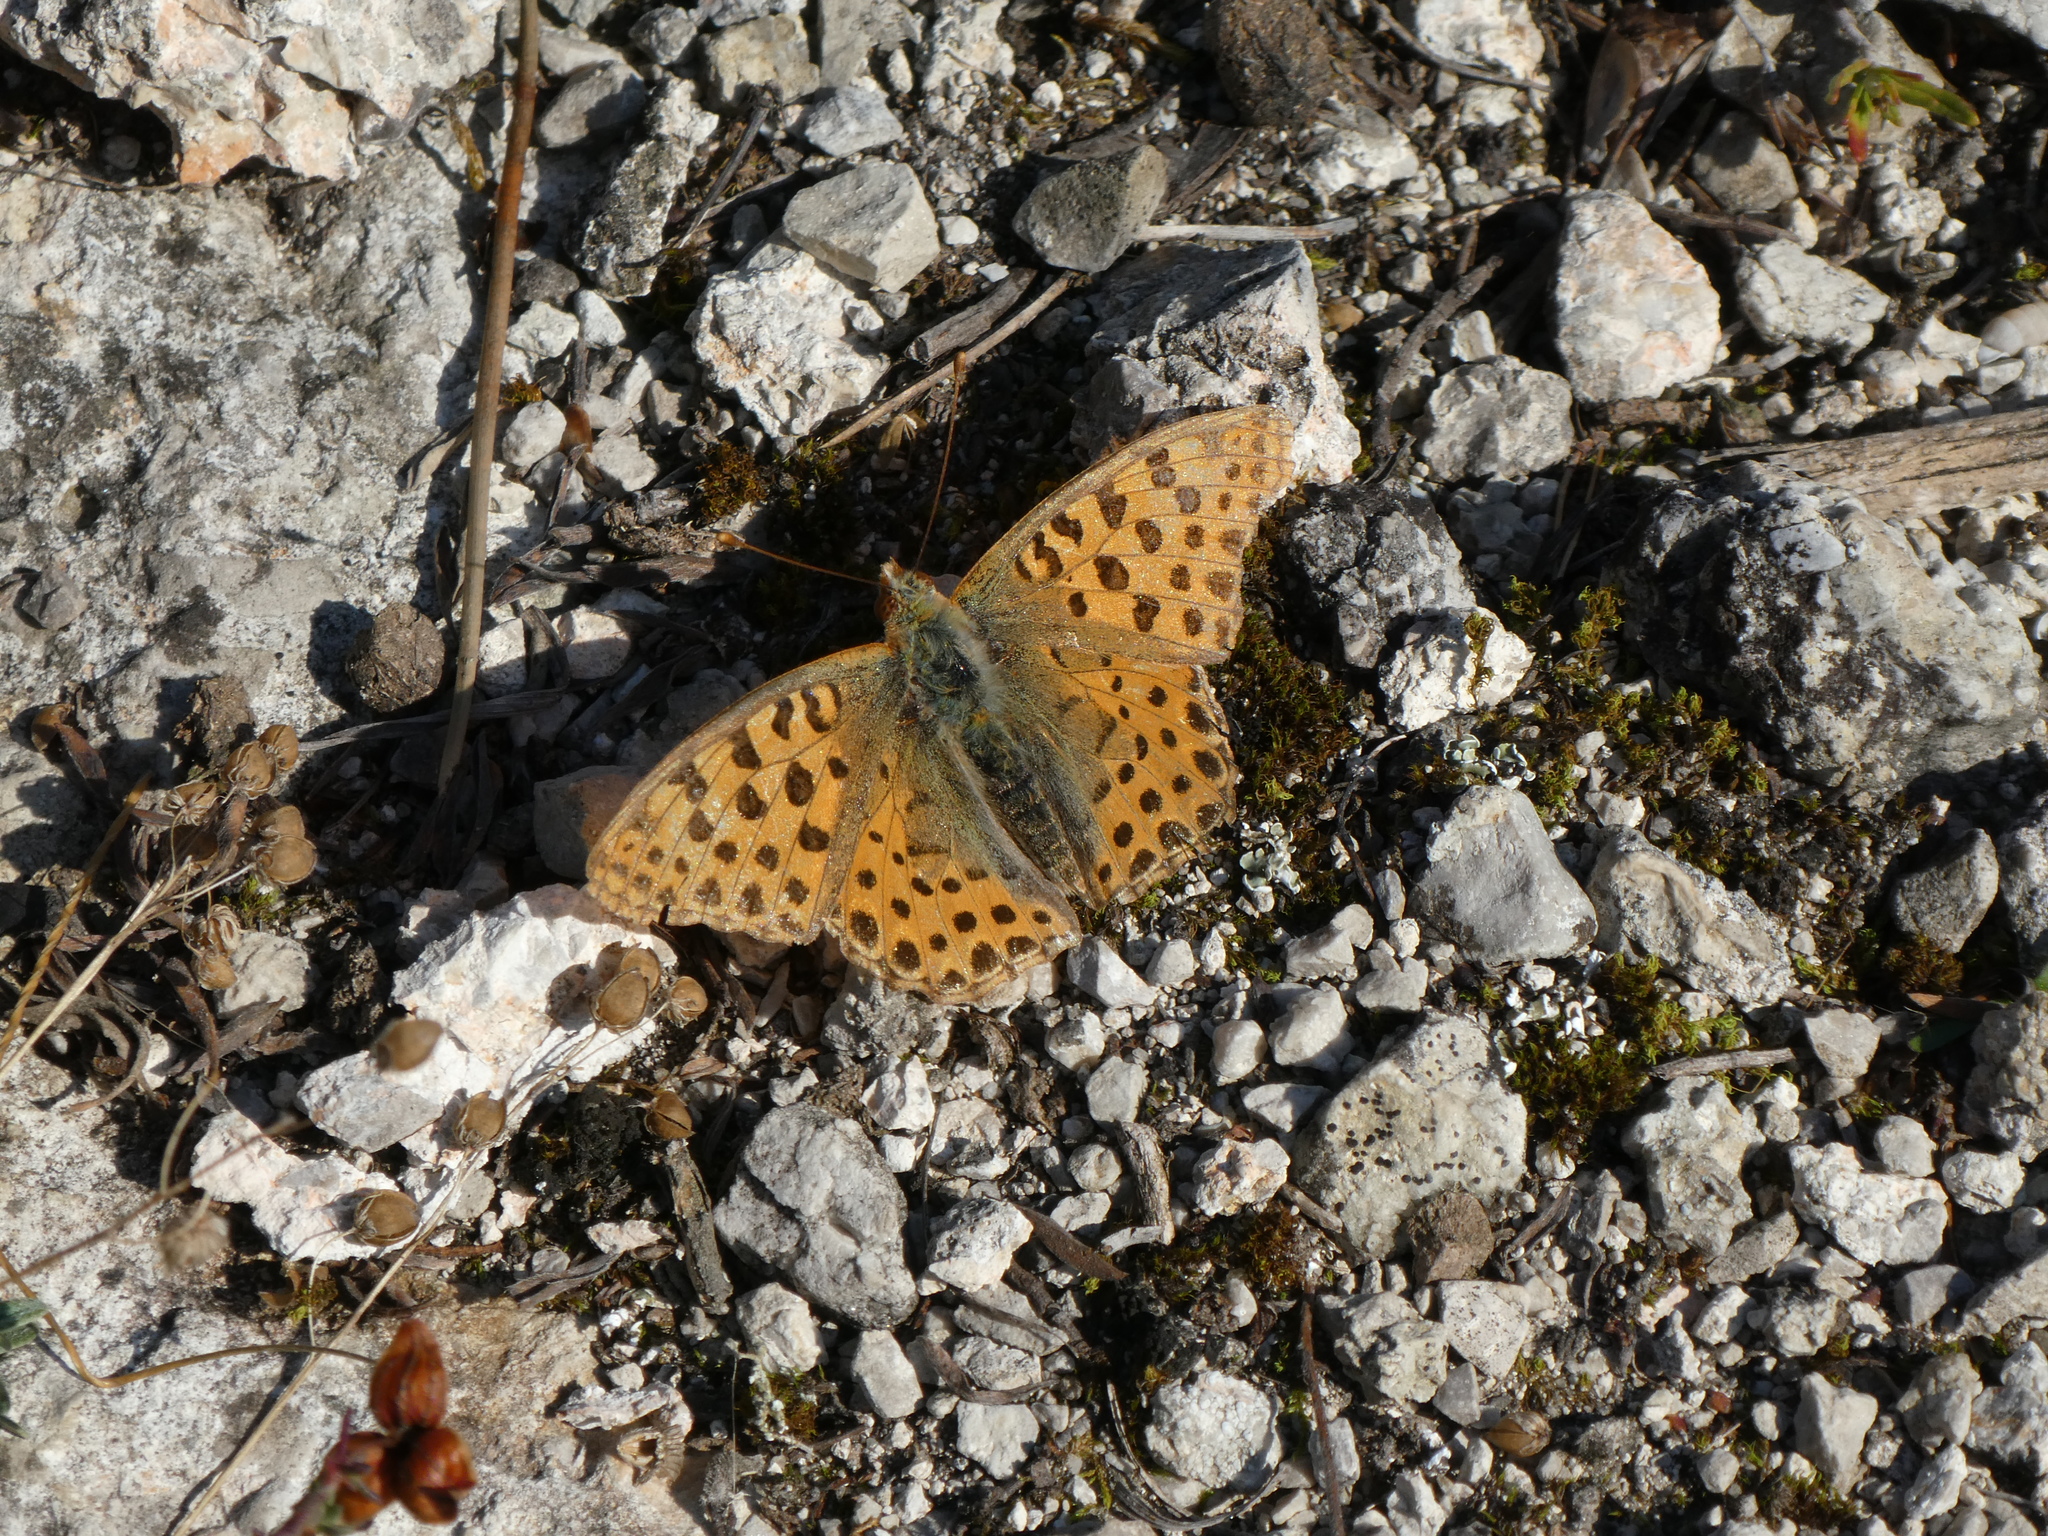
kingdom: Animalia
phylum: Arthropoda
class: Insecta
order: Lepidoptera
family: Nymphalidae
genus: Issoria
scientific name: Issoria lathonia
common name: Queen of spain fritillary
